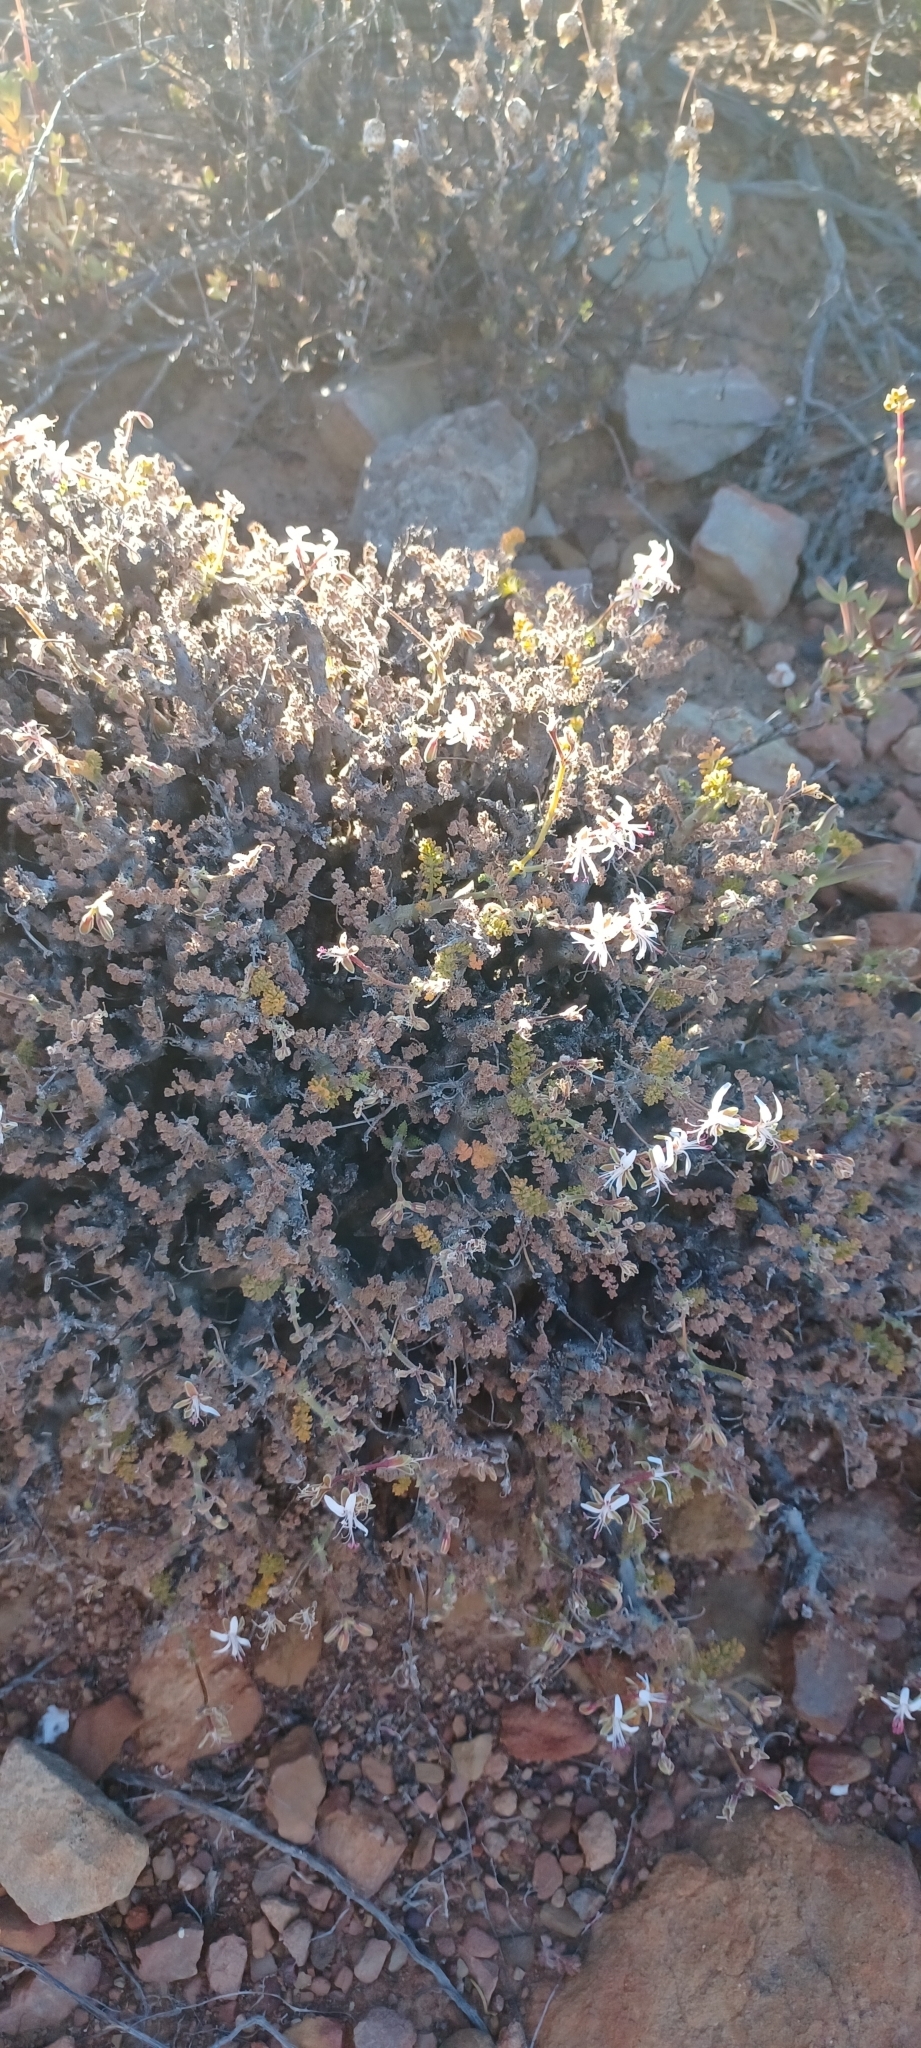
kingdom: Plantae
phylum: Tracheophyta
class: Magnoliopsida
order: Geraniales
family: Geraniaceae
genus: Pelargonium
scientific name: Pelargonium alternans
